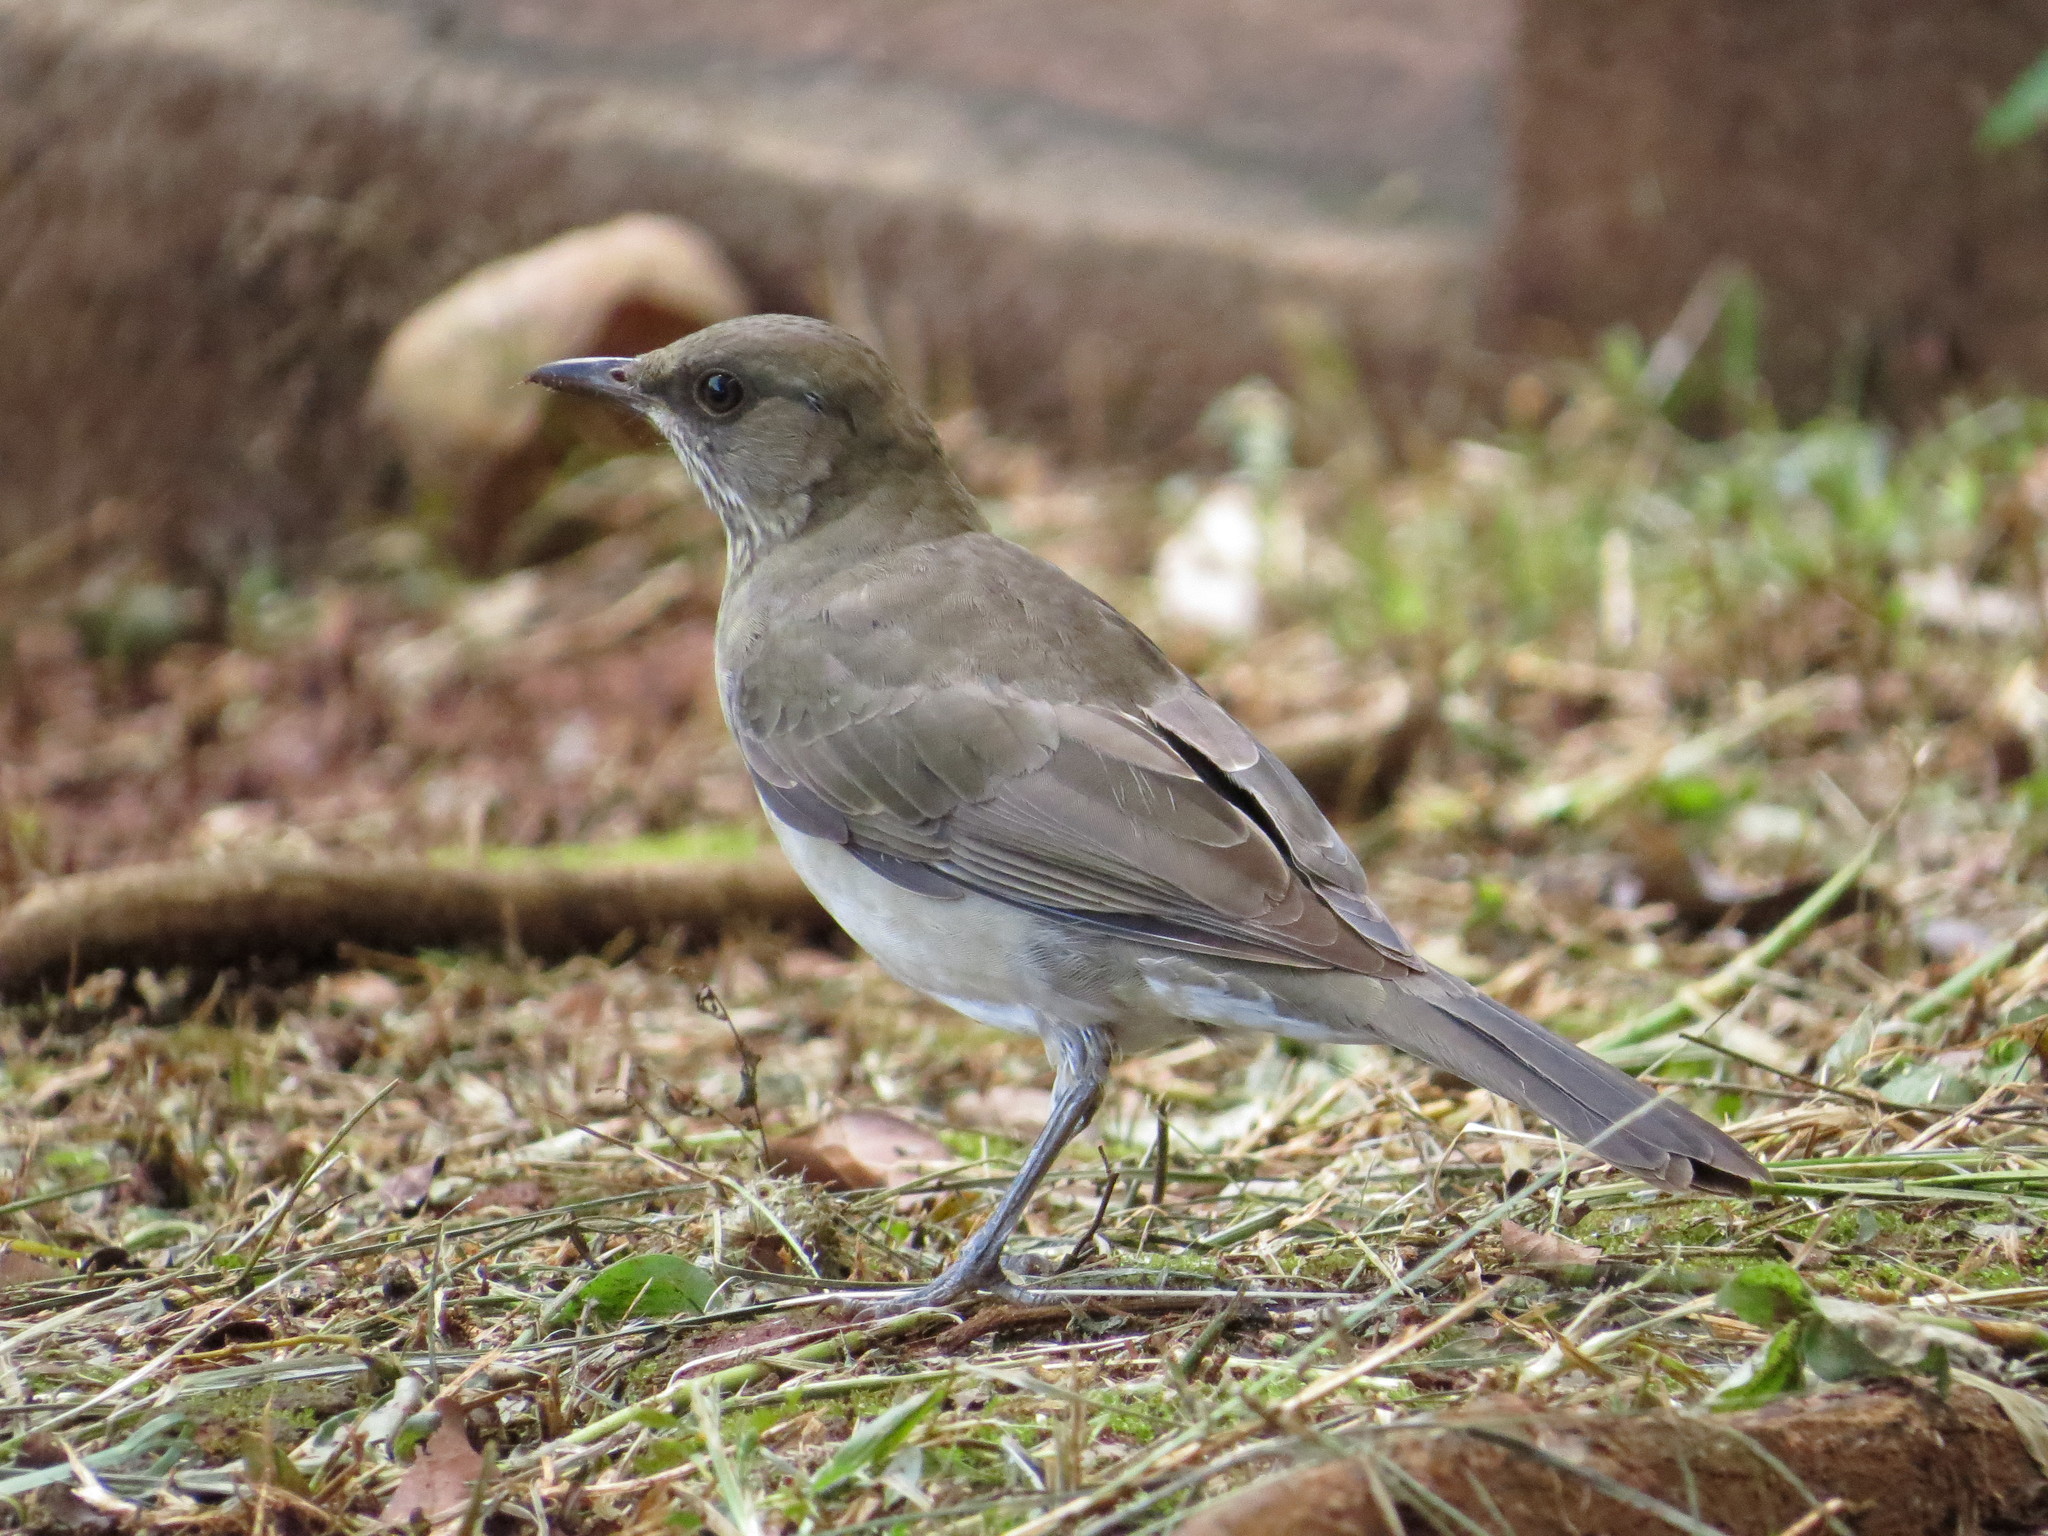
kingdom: Animalia
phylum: Chordata
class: Aves
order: Passeriformes
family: Turdidae
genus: Turdus
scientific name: Turdus amaurochalinus
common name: Creamy-bellied thrush
